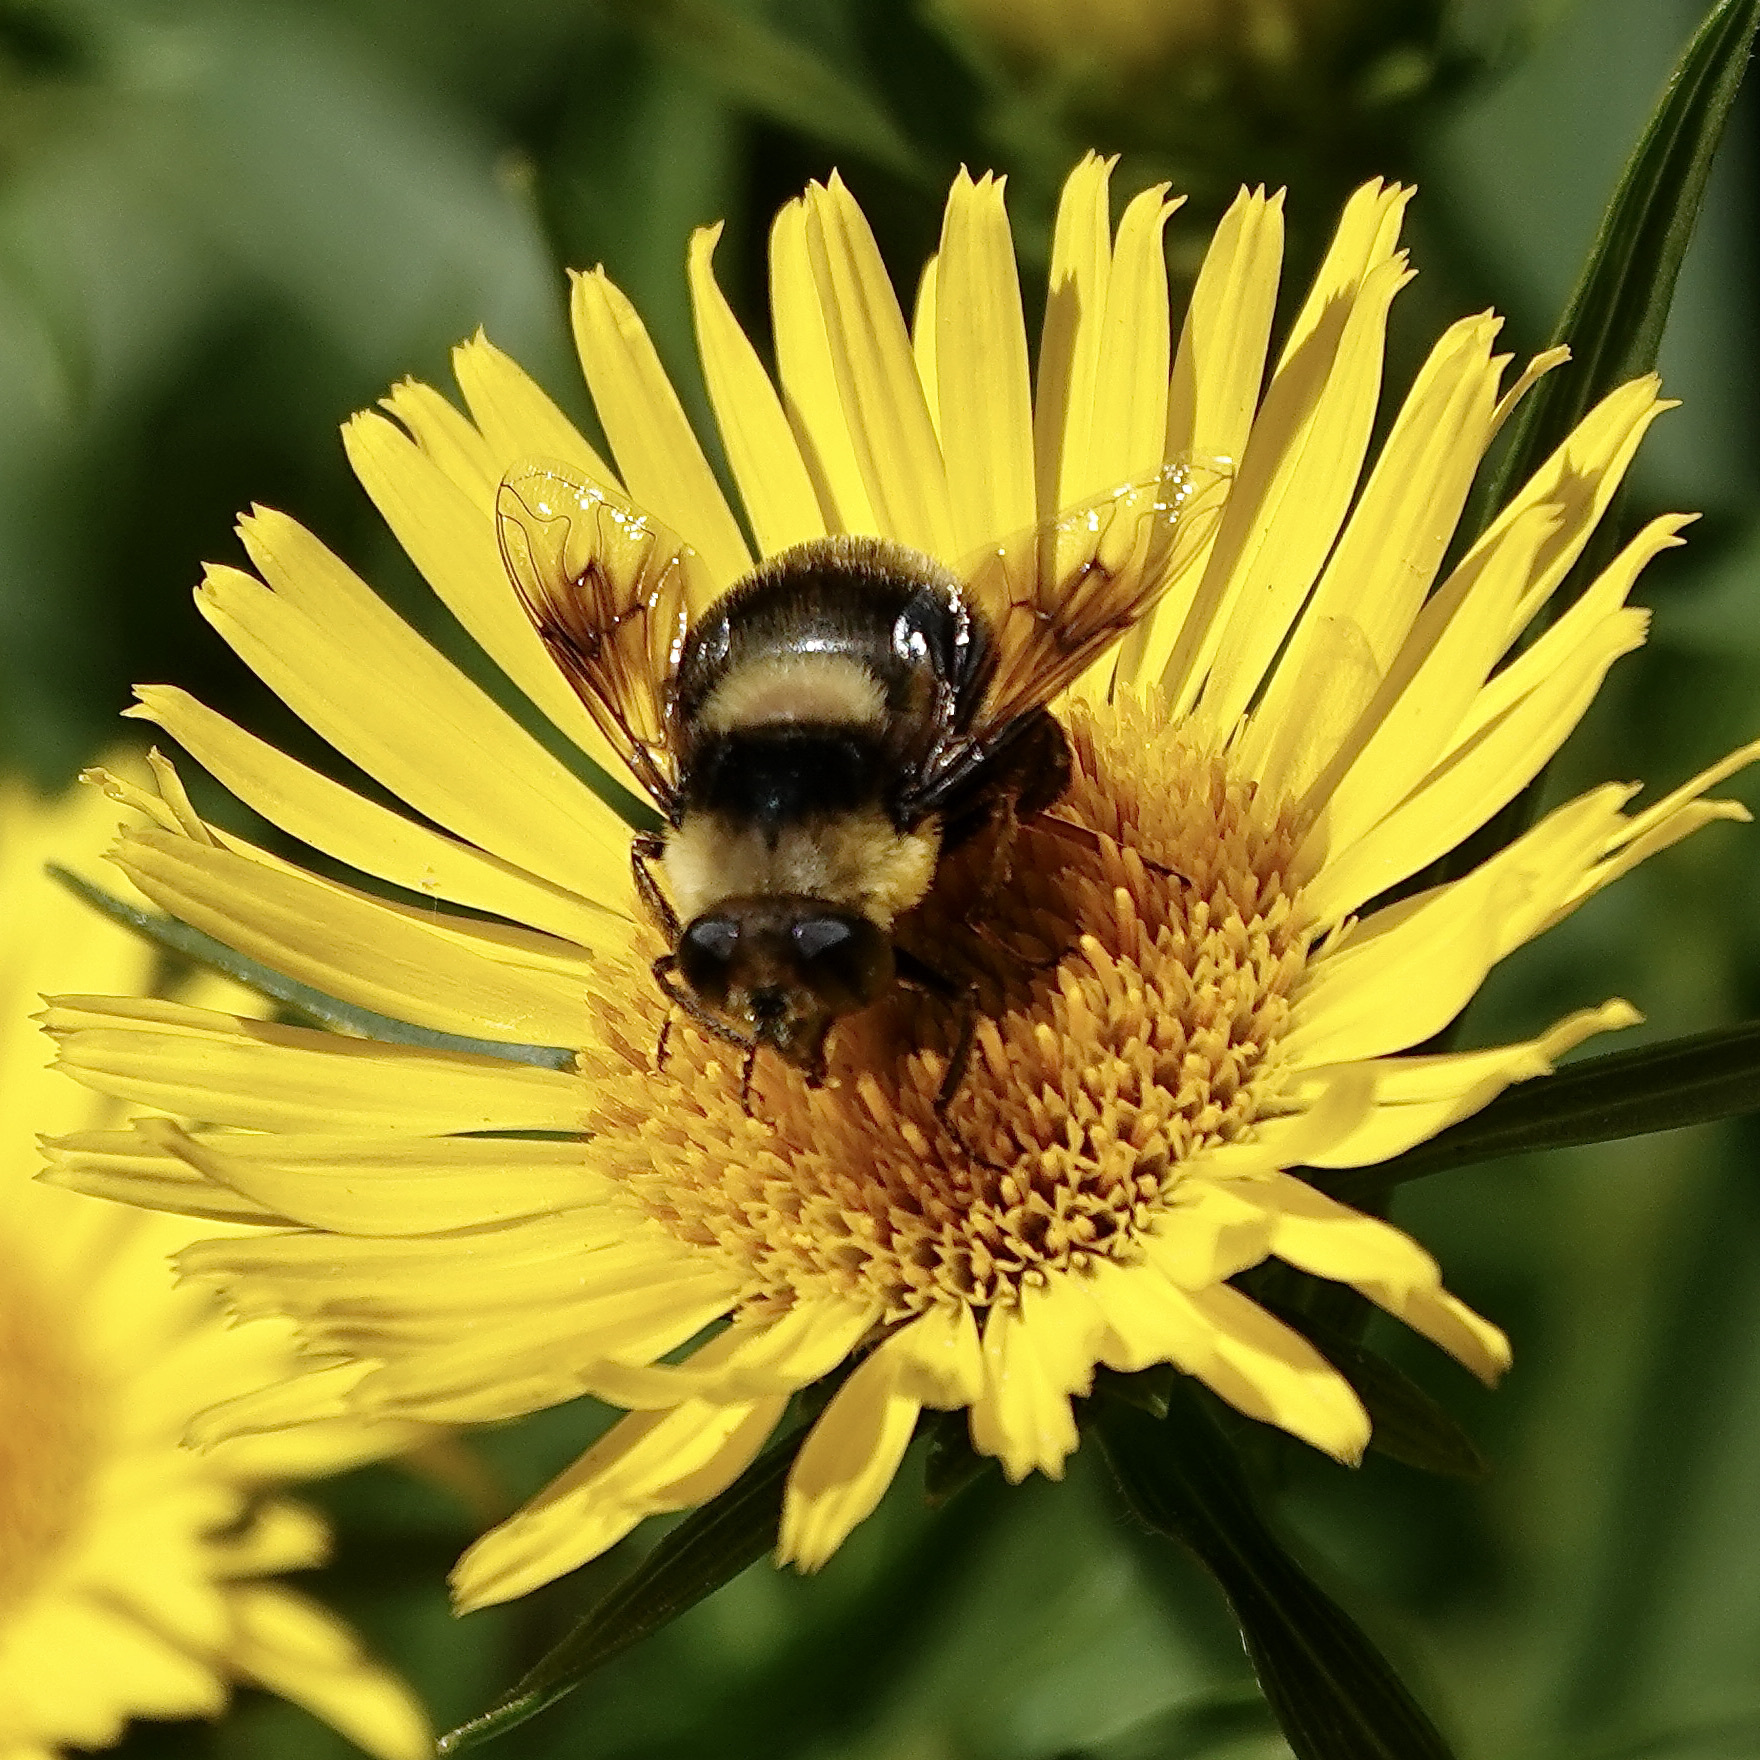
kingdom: Animalia
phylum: Arthropoda
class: Insecta
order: Diptera
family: Syrphidae
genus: Eristalis
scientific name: Eristalis flavipes
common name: Orange-legged drone fly
